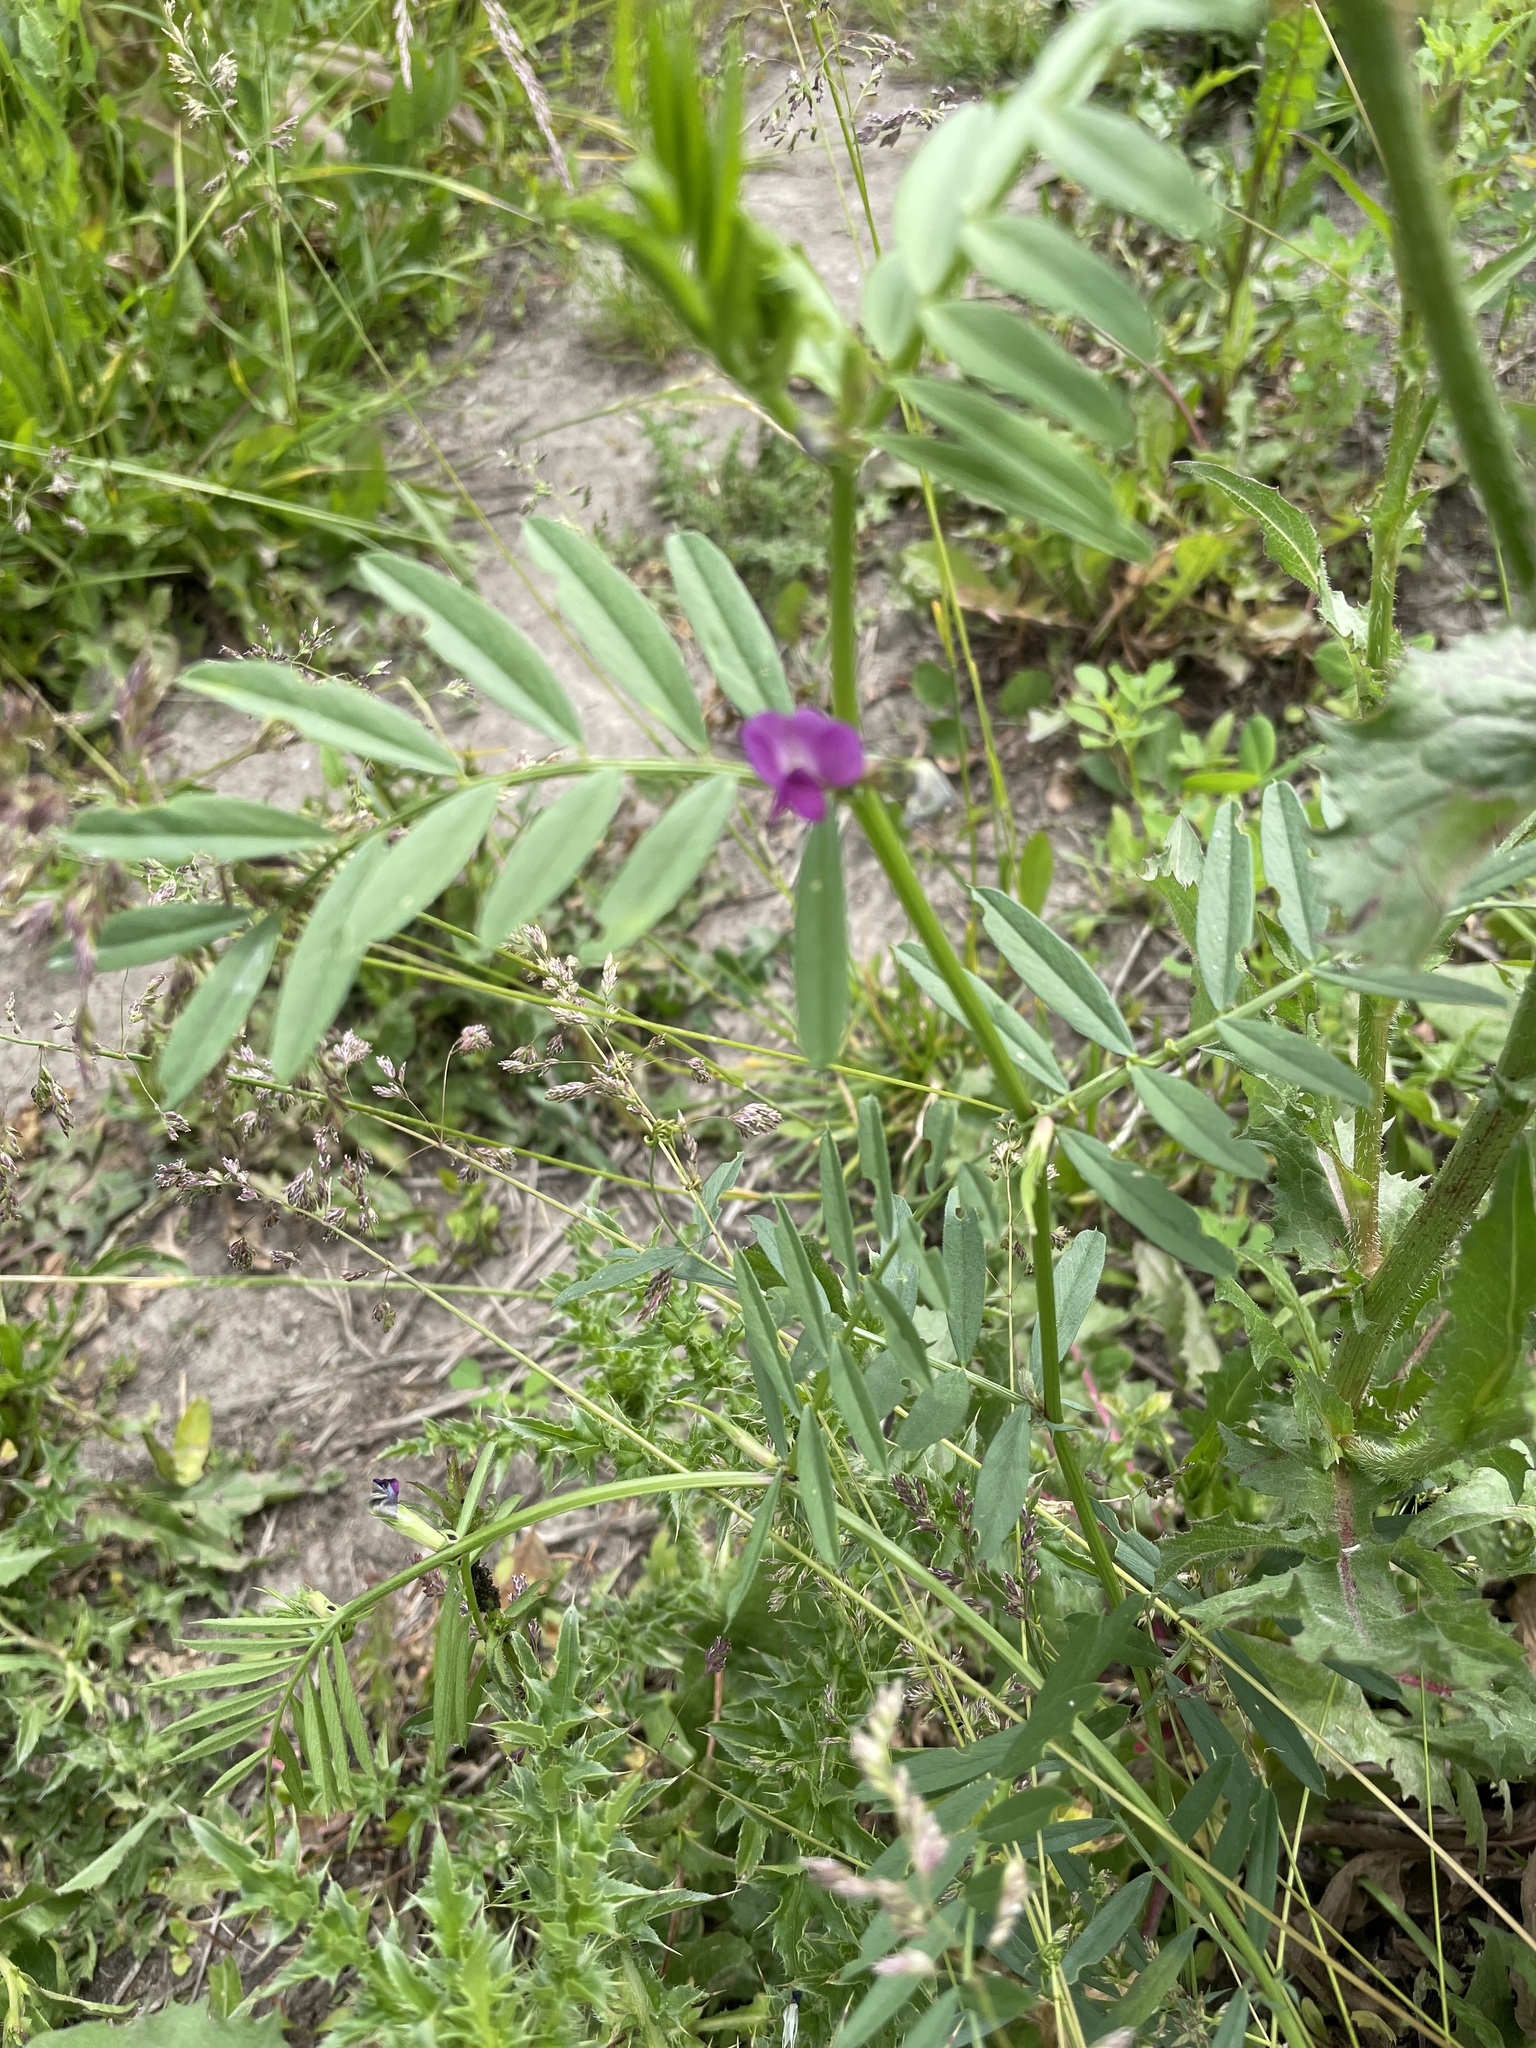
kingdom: Plantae
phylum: Tracheophyta
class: Magnoliopsida
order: Fabales
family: Fabaceae
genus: Vicia
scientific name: Vicia sativa
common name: Garden vetch
